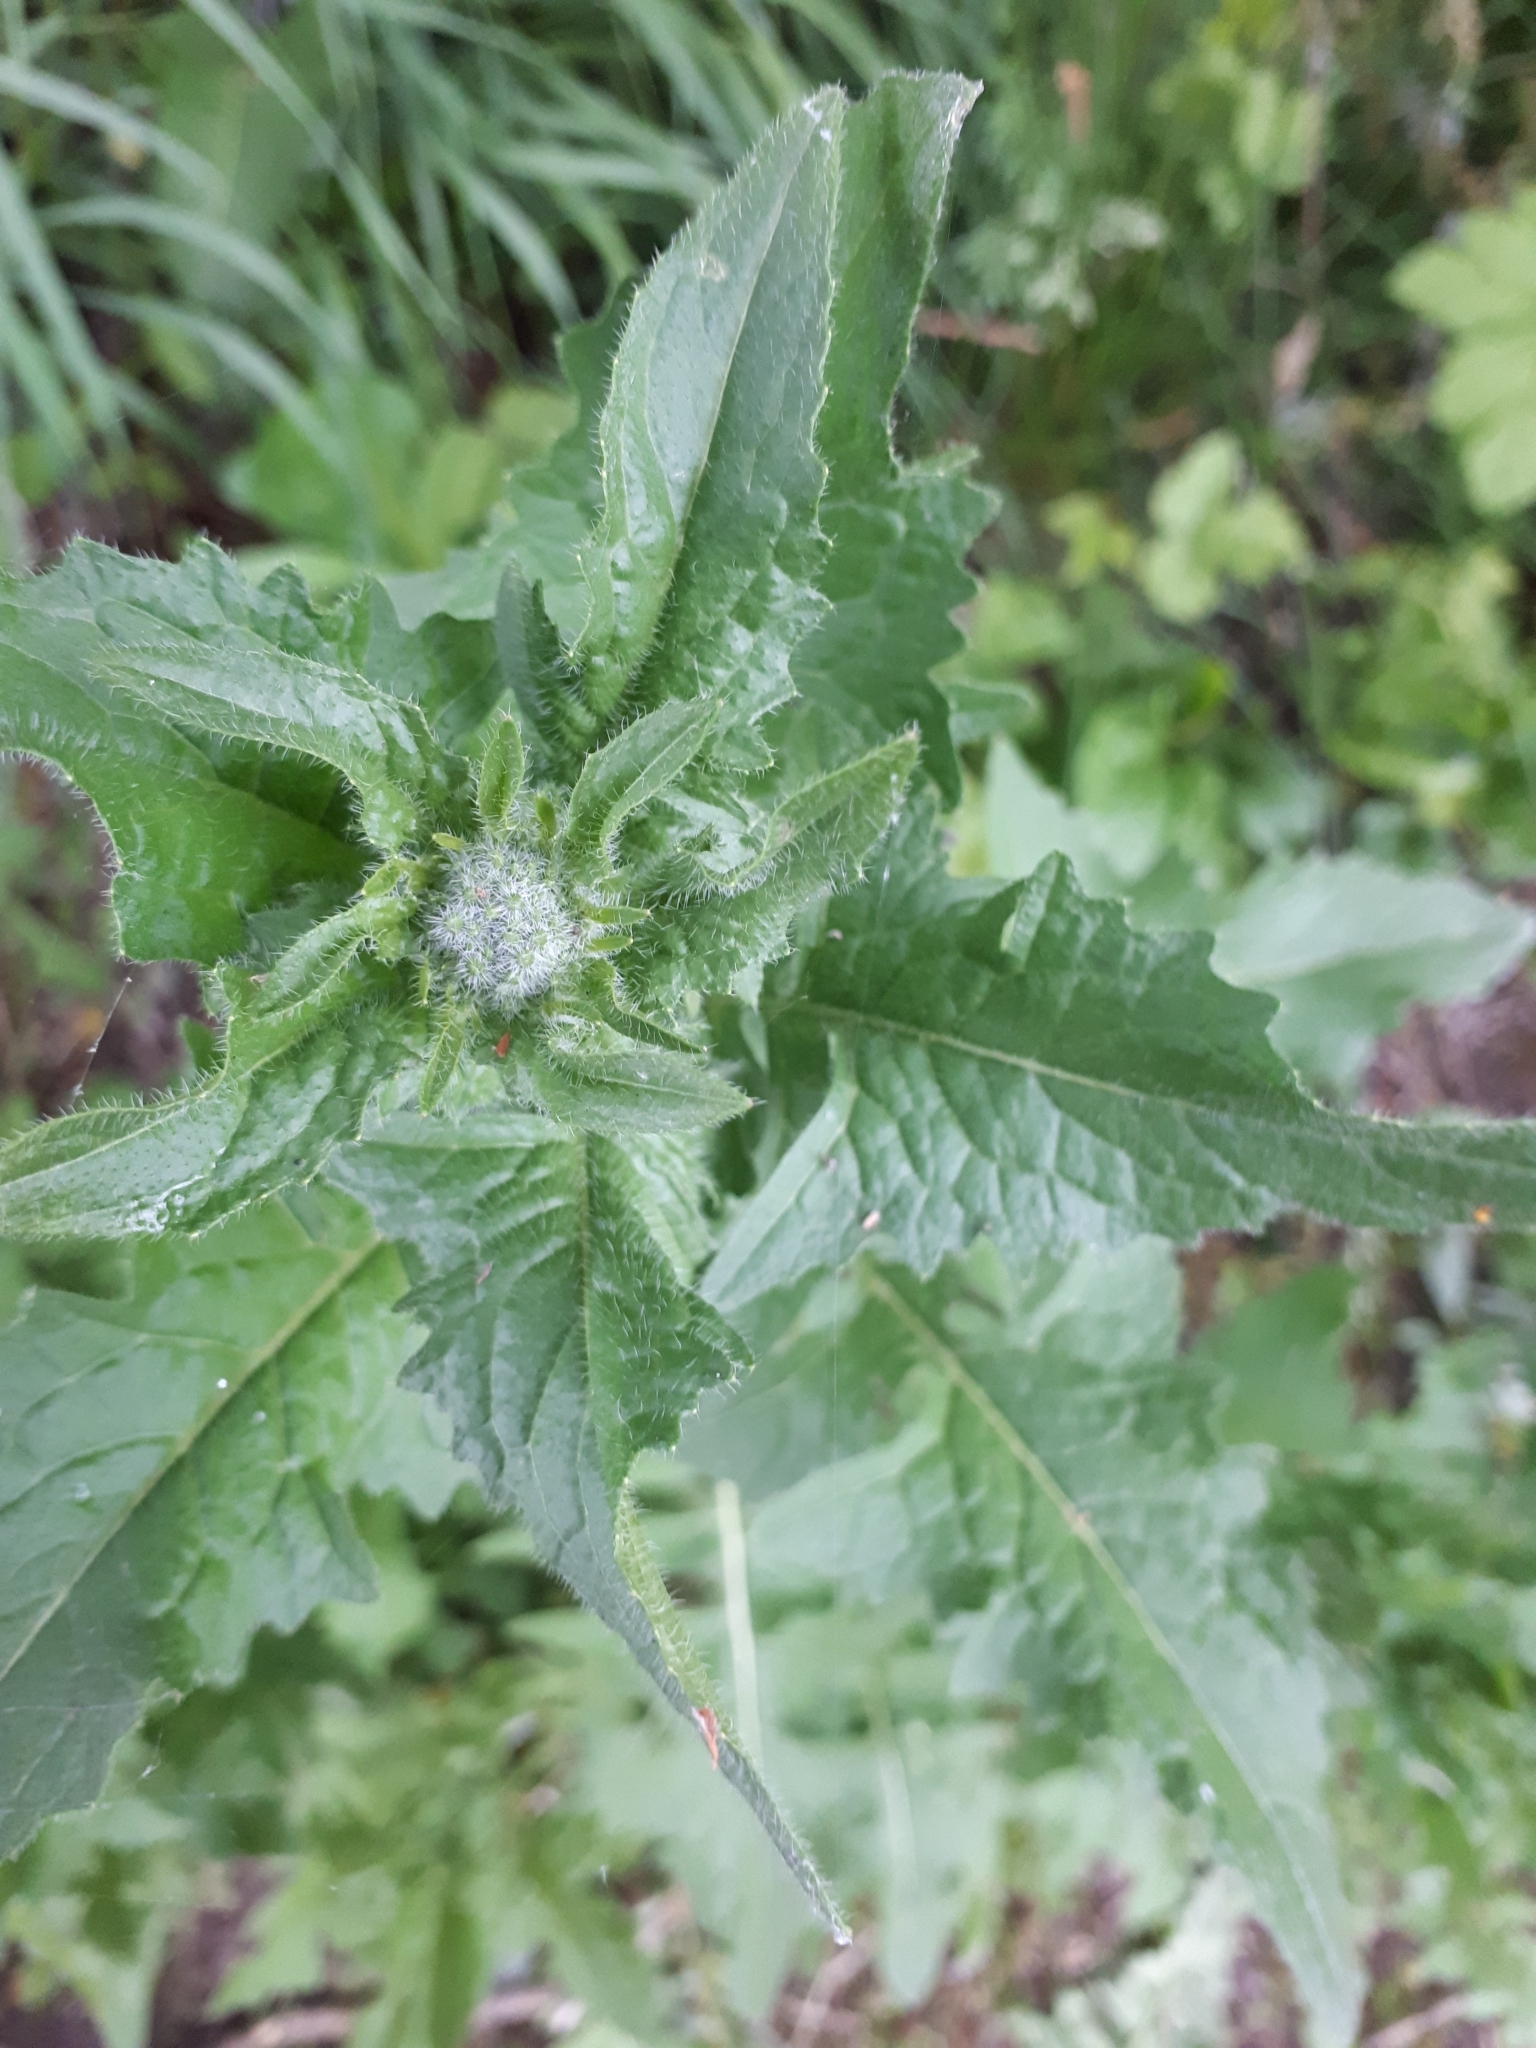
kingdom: Plantae
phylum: Tracheophyta
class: Magnoliopsida
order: Brassicales
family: Brassicaceae
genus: Sisymbrium
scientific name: Sisymbrium loeselii
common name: False london-rocket
